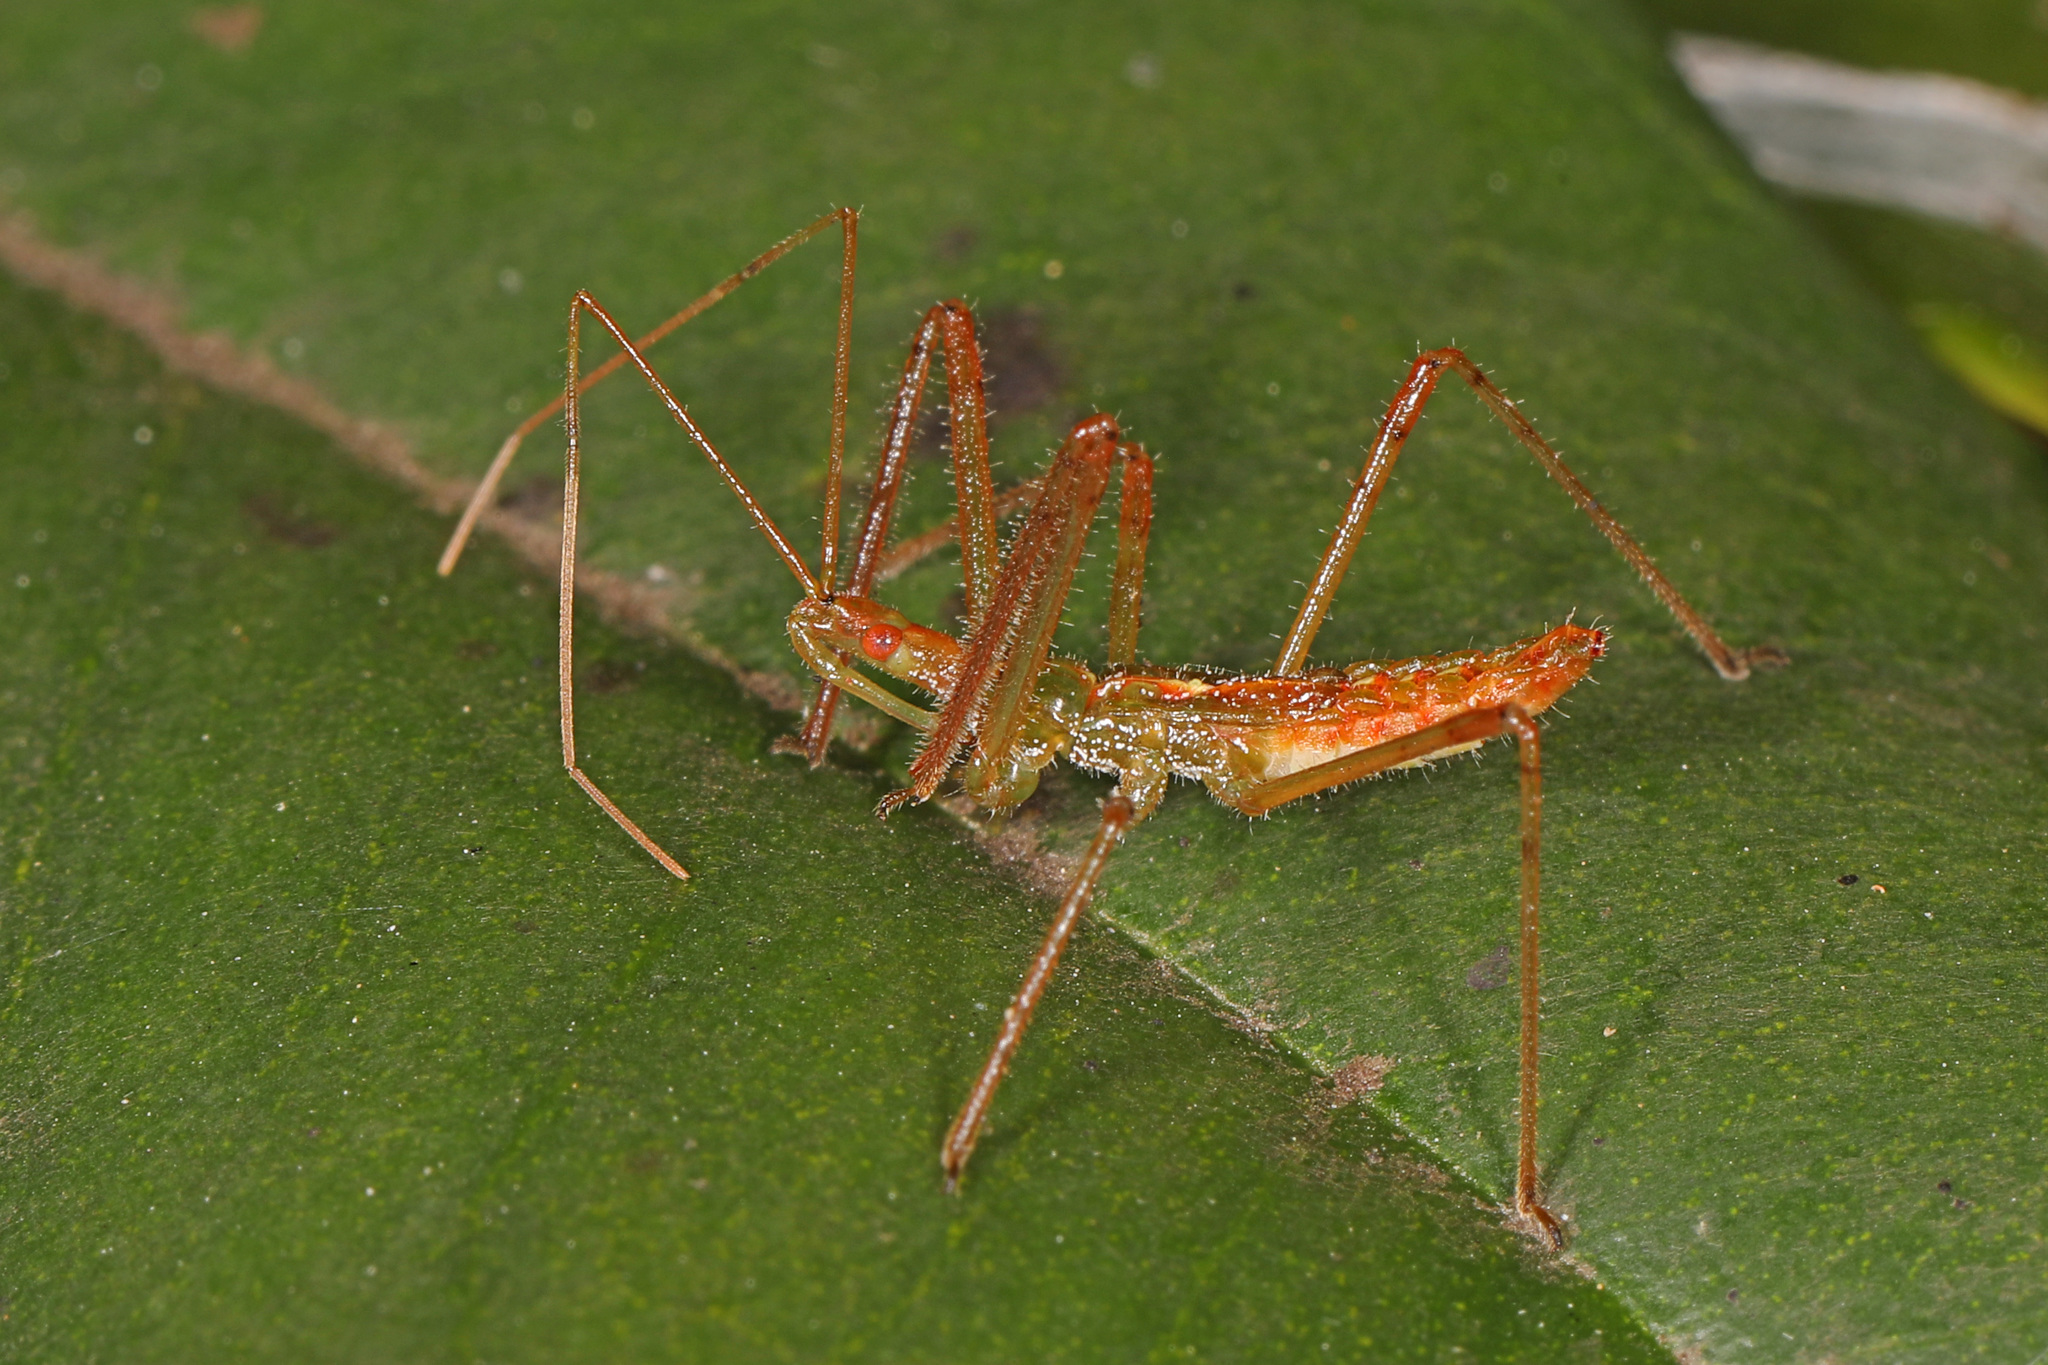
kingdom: Animalia
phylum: Arthropoda
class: Insecta
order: Hemiptera
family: Reduviidae
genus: Zelus
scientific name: Zelus luridus
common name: Pale green assassin bug
